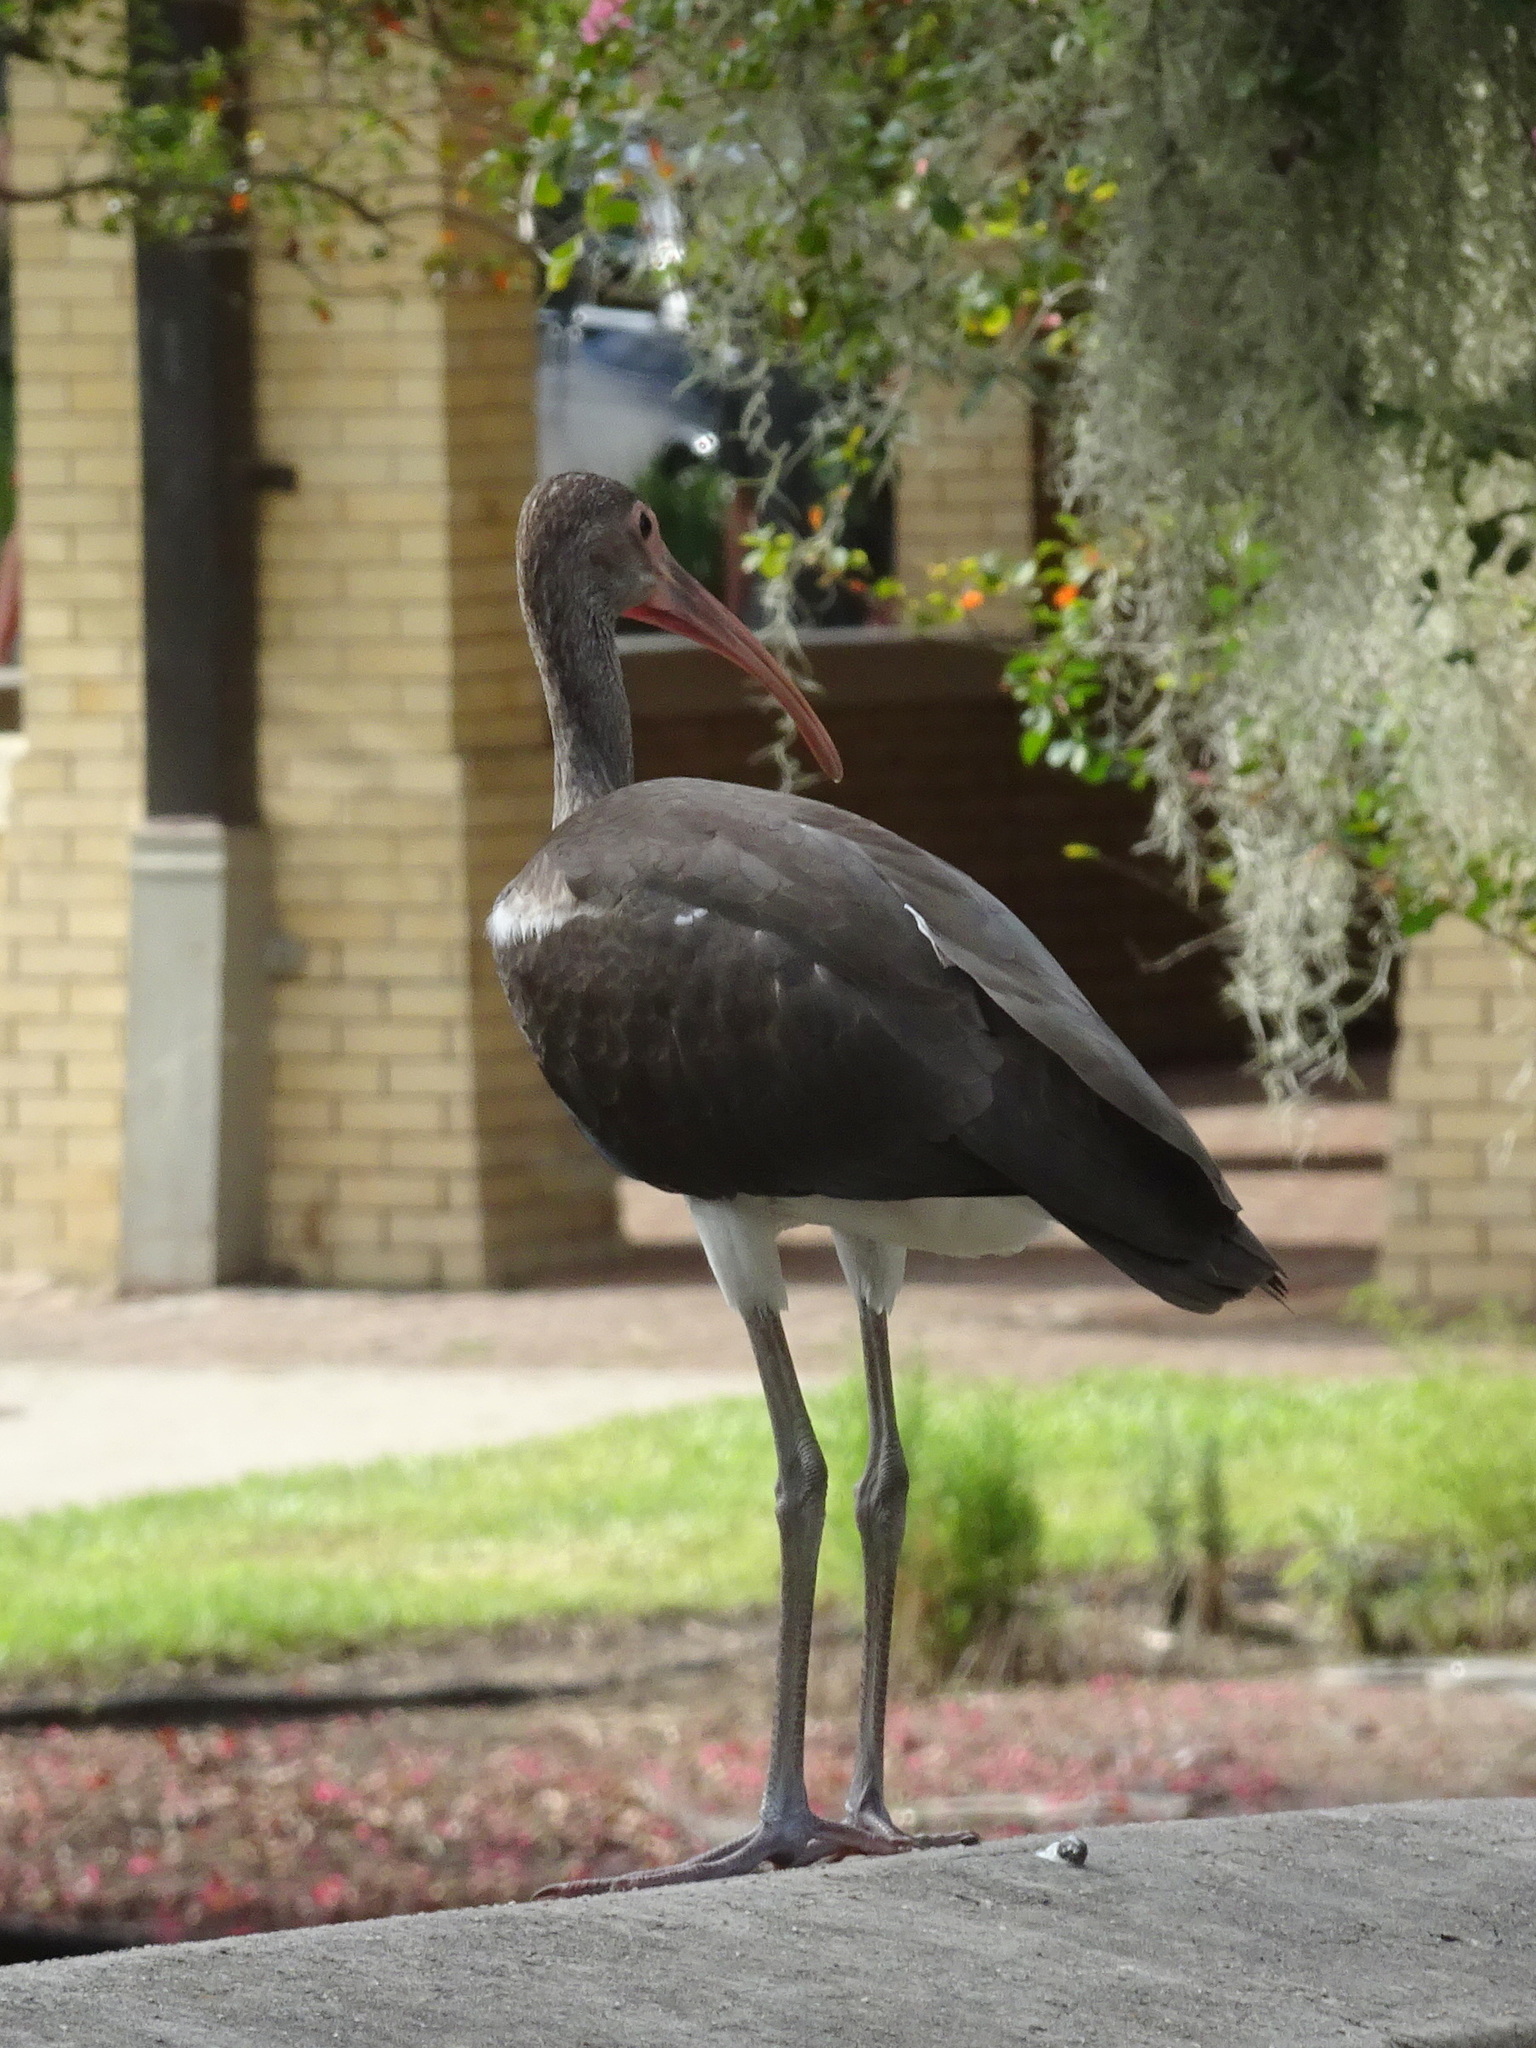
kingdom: Animalia
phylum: Chordata
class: Aves
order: Pelecaniformes
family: Threskiornithidae
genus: Eudocimus
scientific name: Eudocimus albus
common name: White ibis
